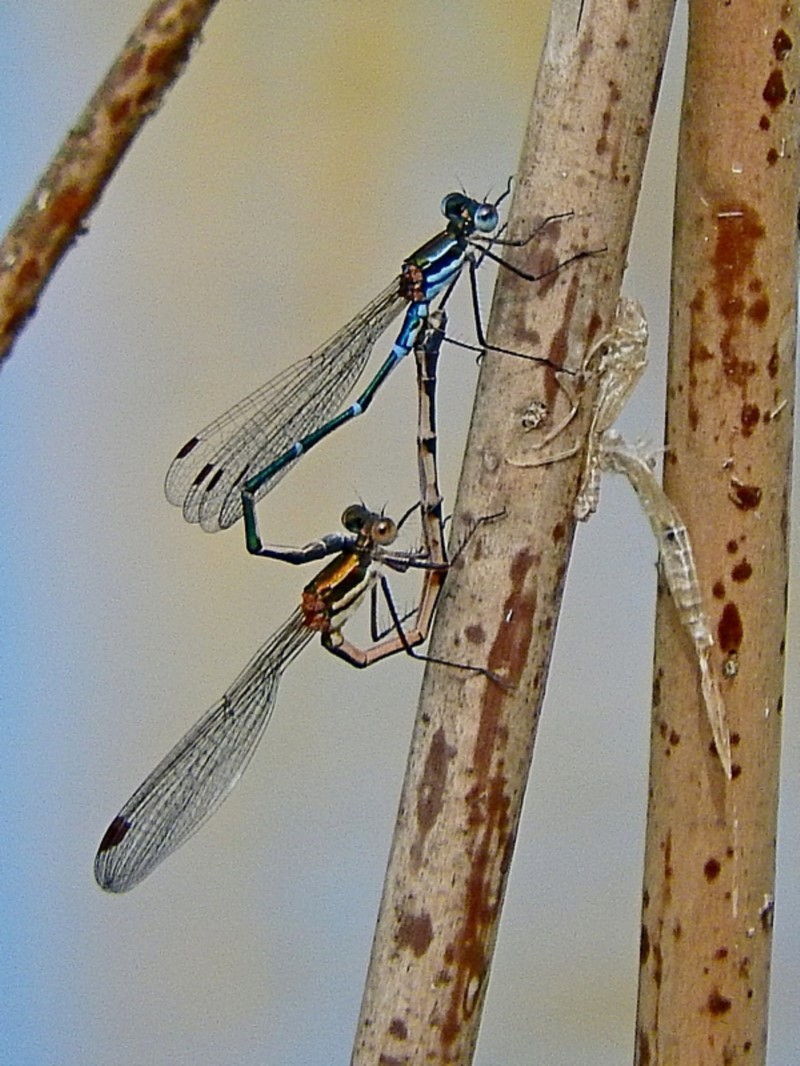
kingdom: Animalia
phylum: Arthropoda
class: Insecta
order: Odonata
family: Lestidae
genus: Austrolestes
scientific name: Austrolestes psyche
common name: Cup ringtail
